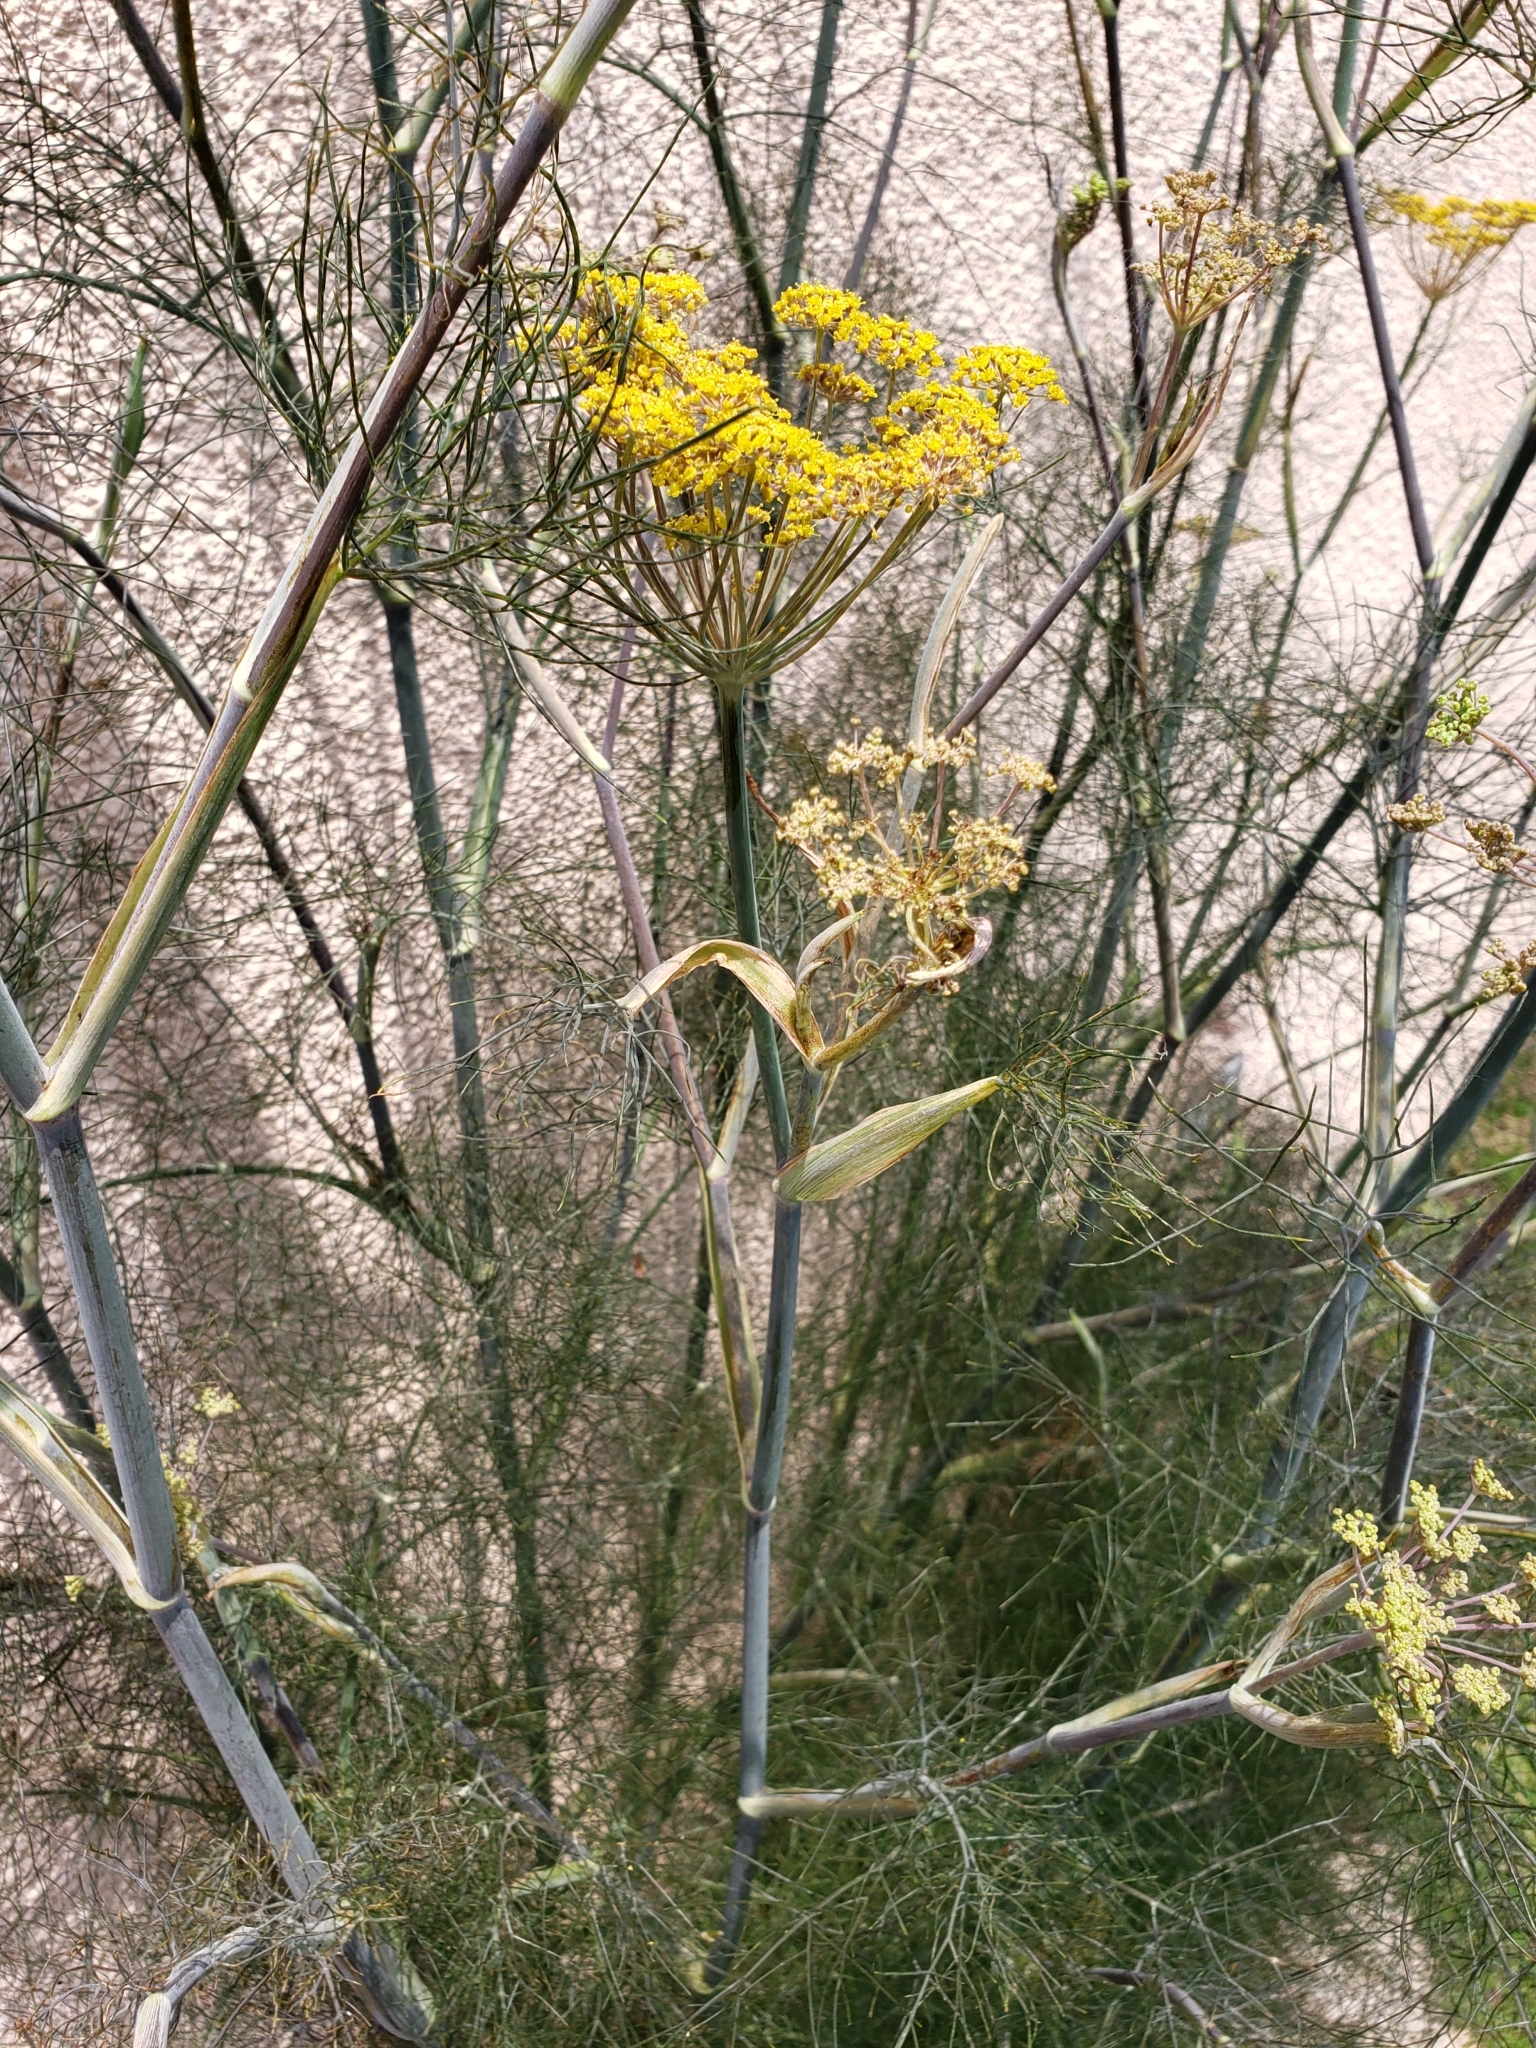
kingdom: Plantae
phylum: Tracheophyta
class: Magnoliopsida
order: Apiales
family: Apiaceae
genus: Foeniculum
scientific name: Foeniculum vulgare
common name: Fennel
